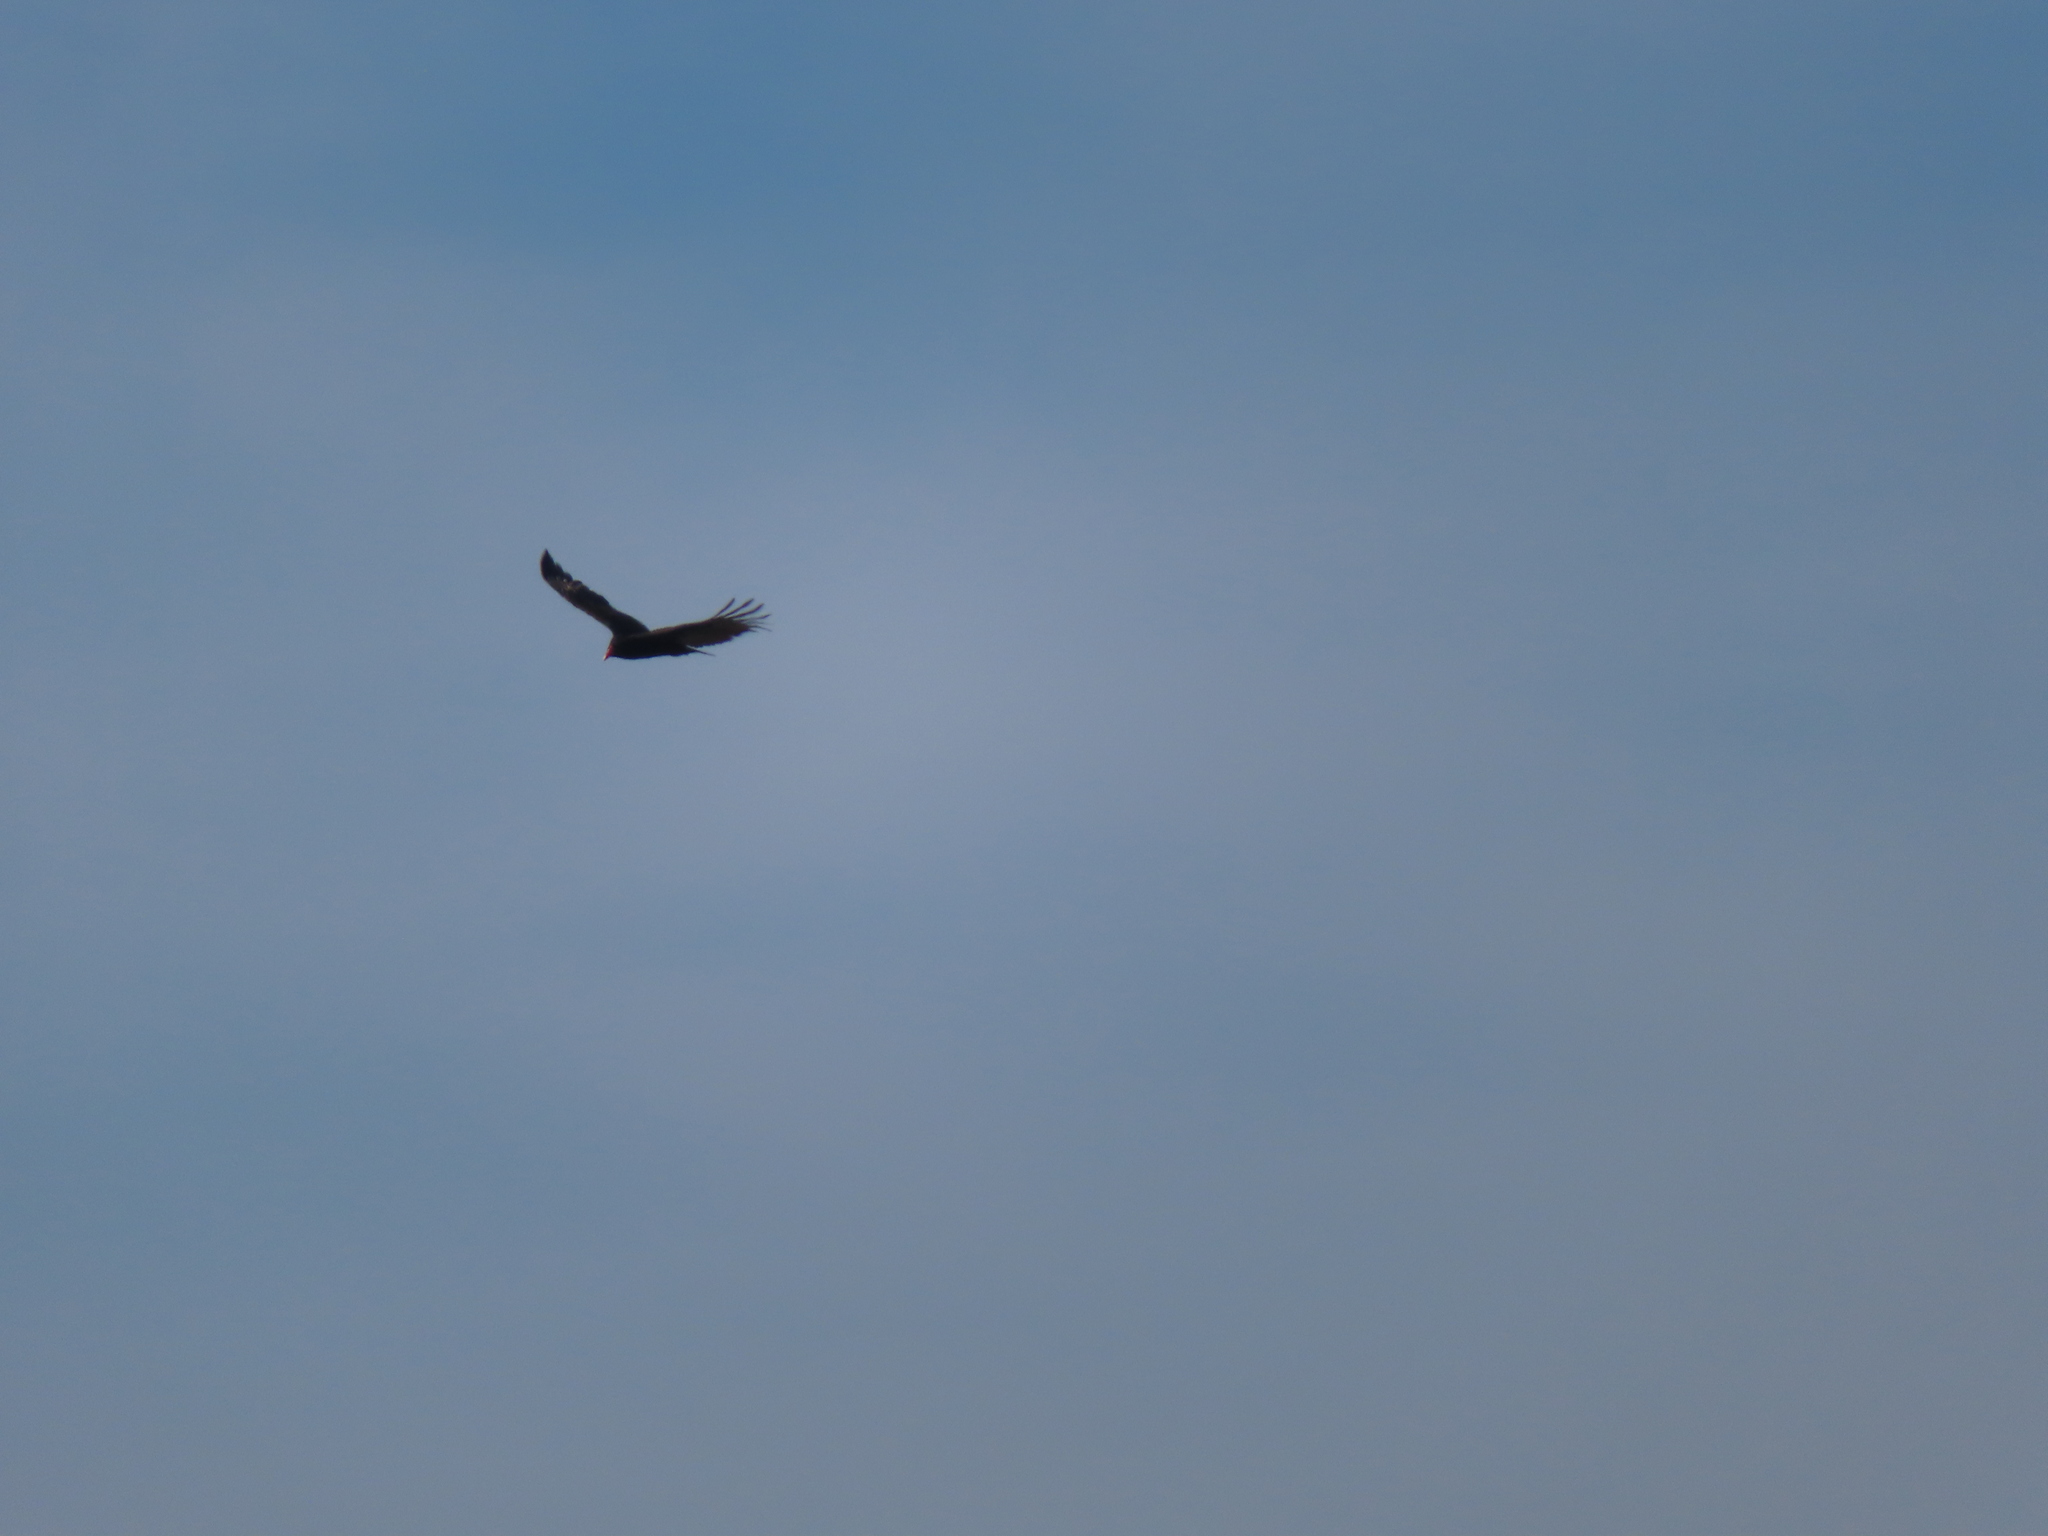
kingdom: Animalia
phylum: Chordata
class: Aves
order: Accipitriformes
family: Cathartidae
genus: Cathartes
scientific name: Cathartes aura
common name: Turkey vulture
